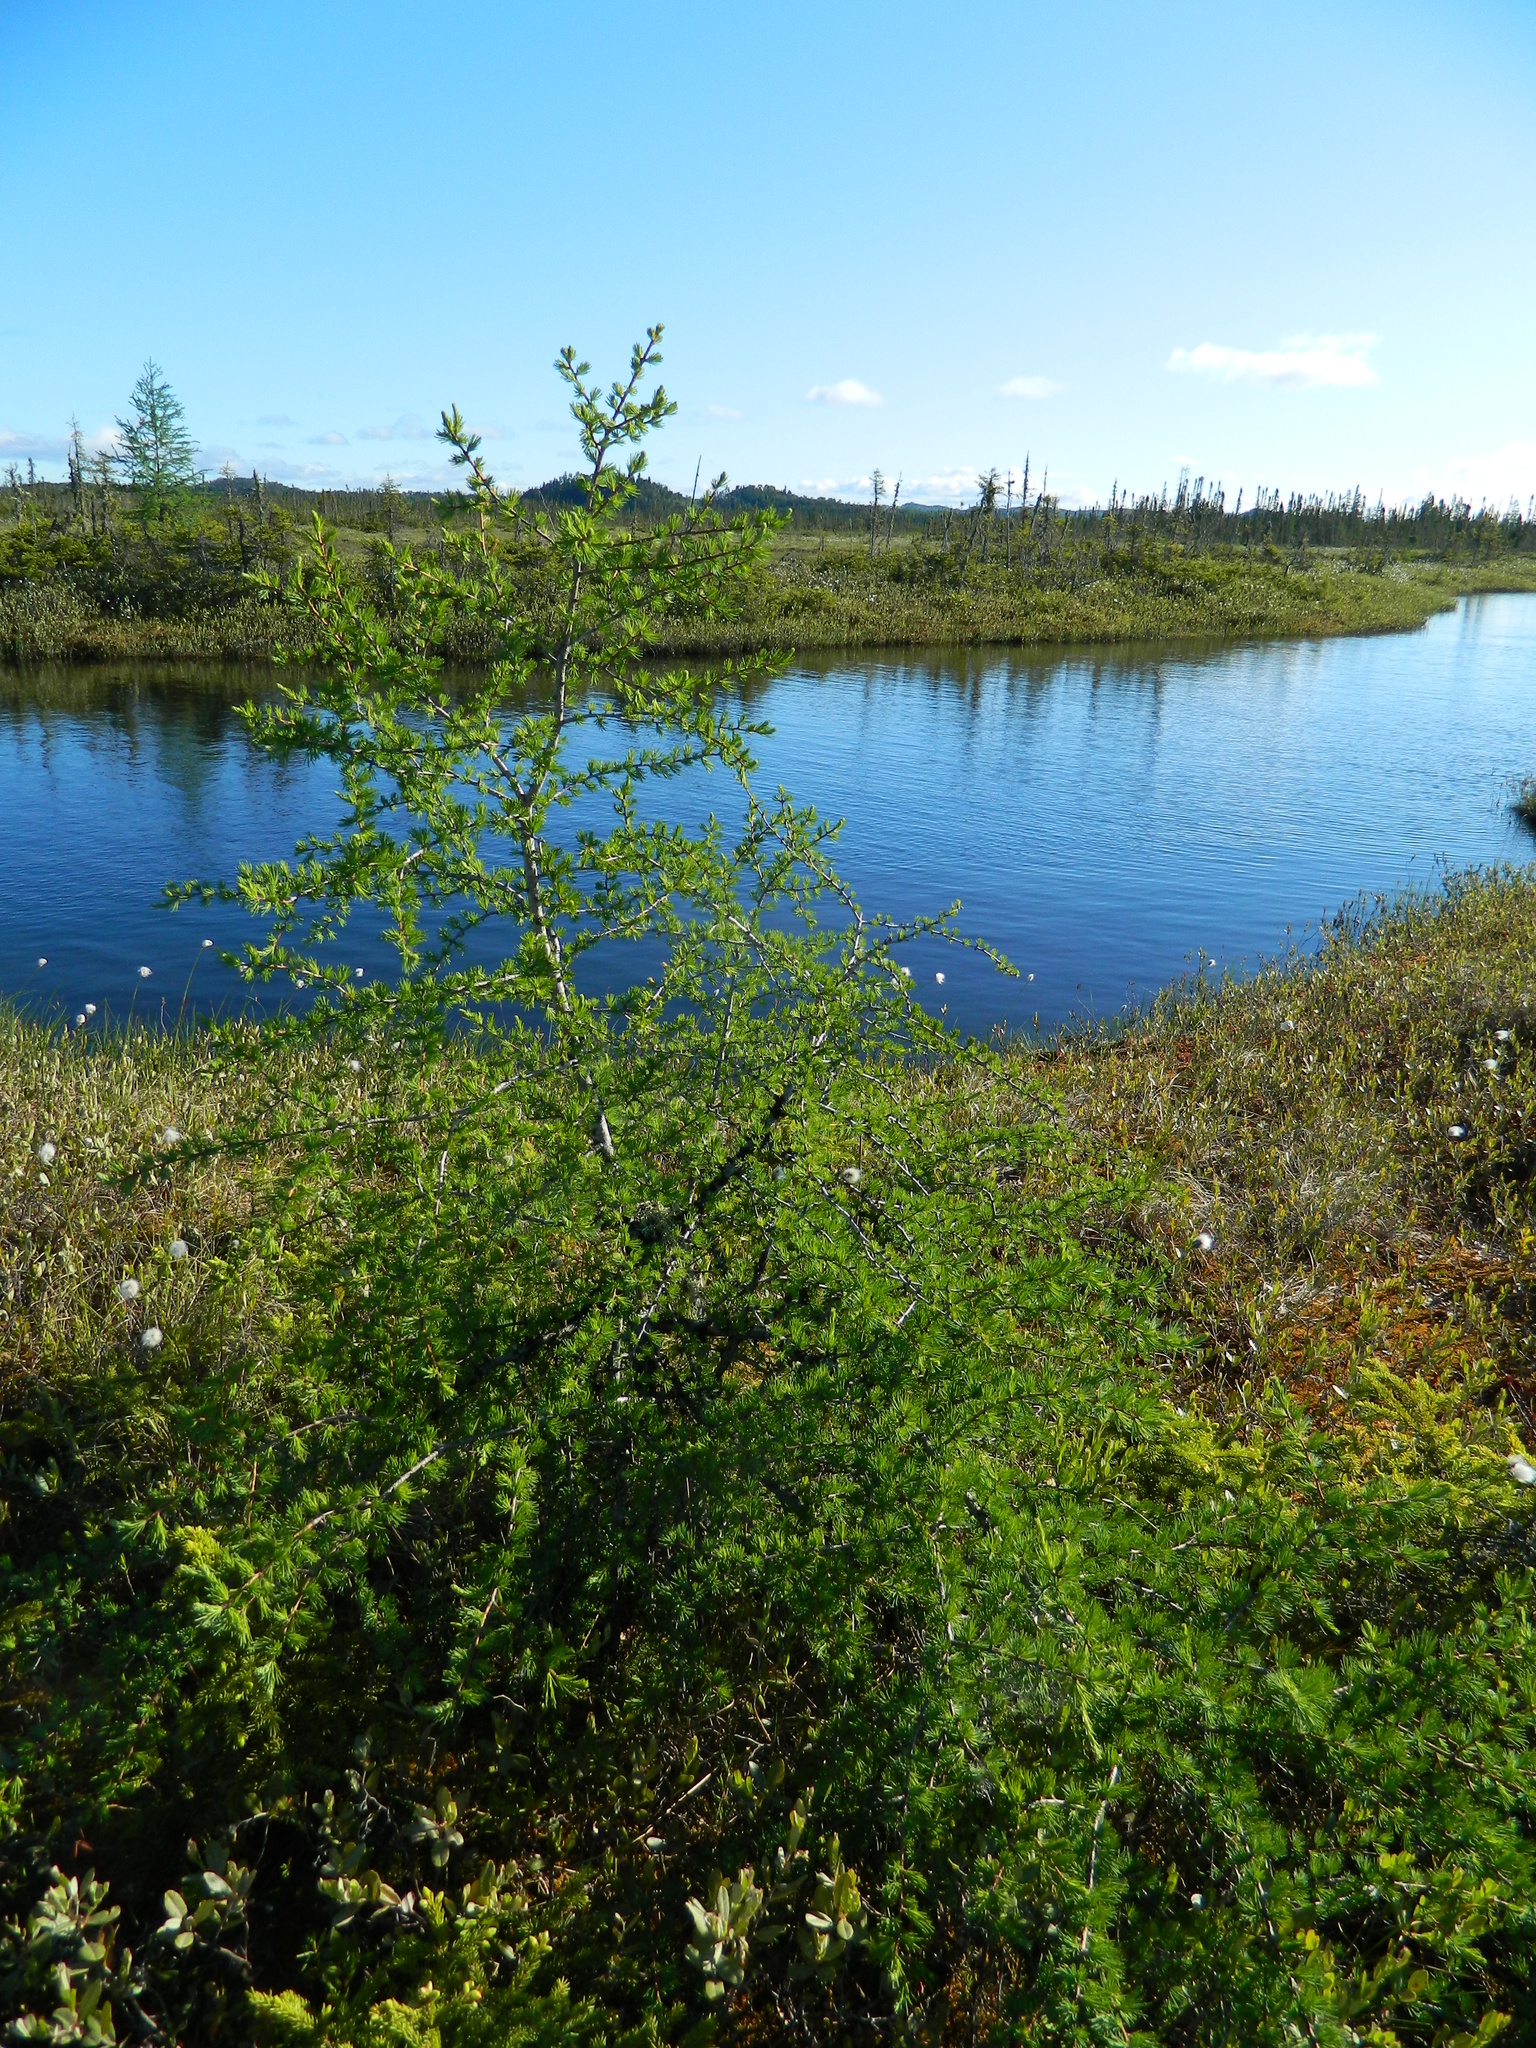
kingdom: Plantae
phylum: Tracheophyta
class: Pinopsida
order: Pinales
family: Pinaceae
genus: Larix
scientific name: Larix laricina
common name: American larch
